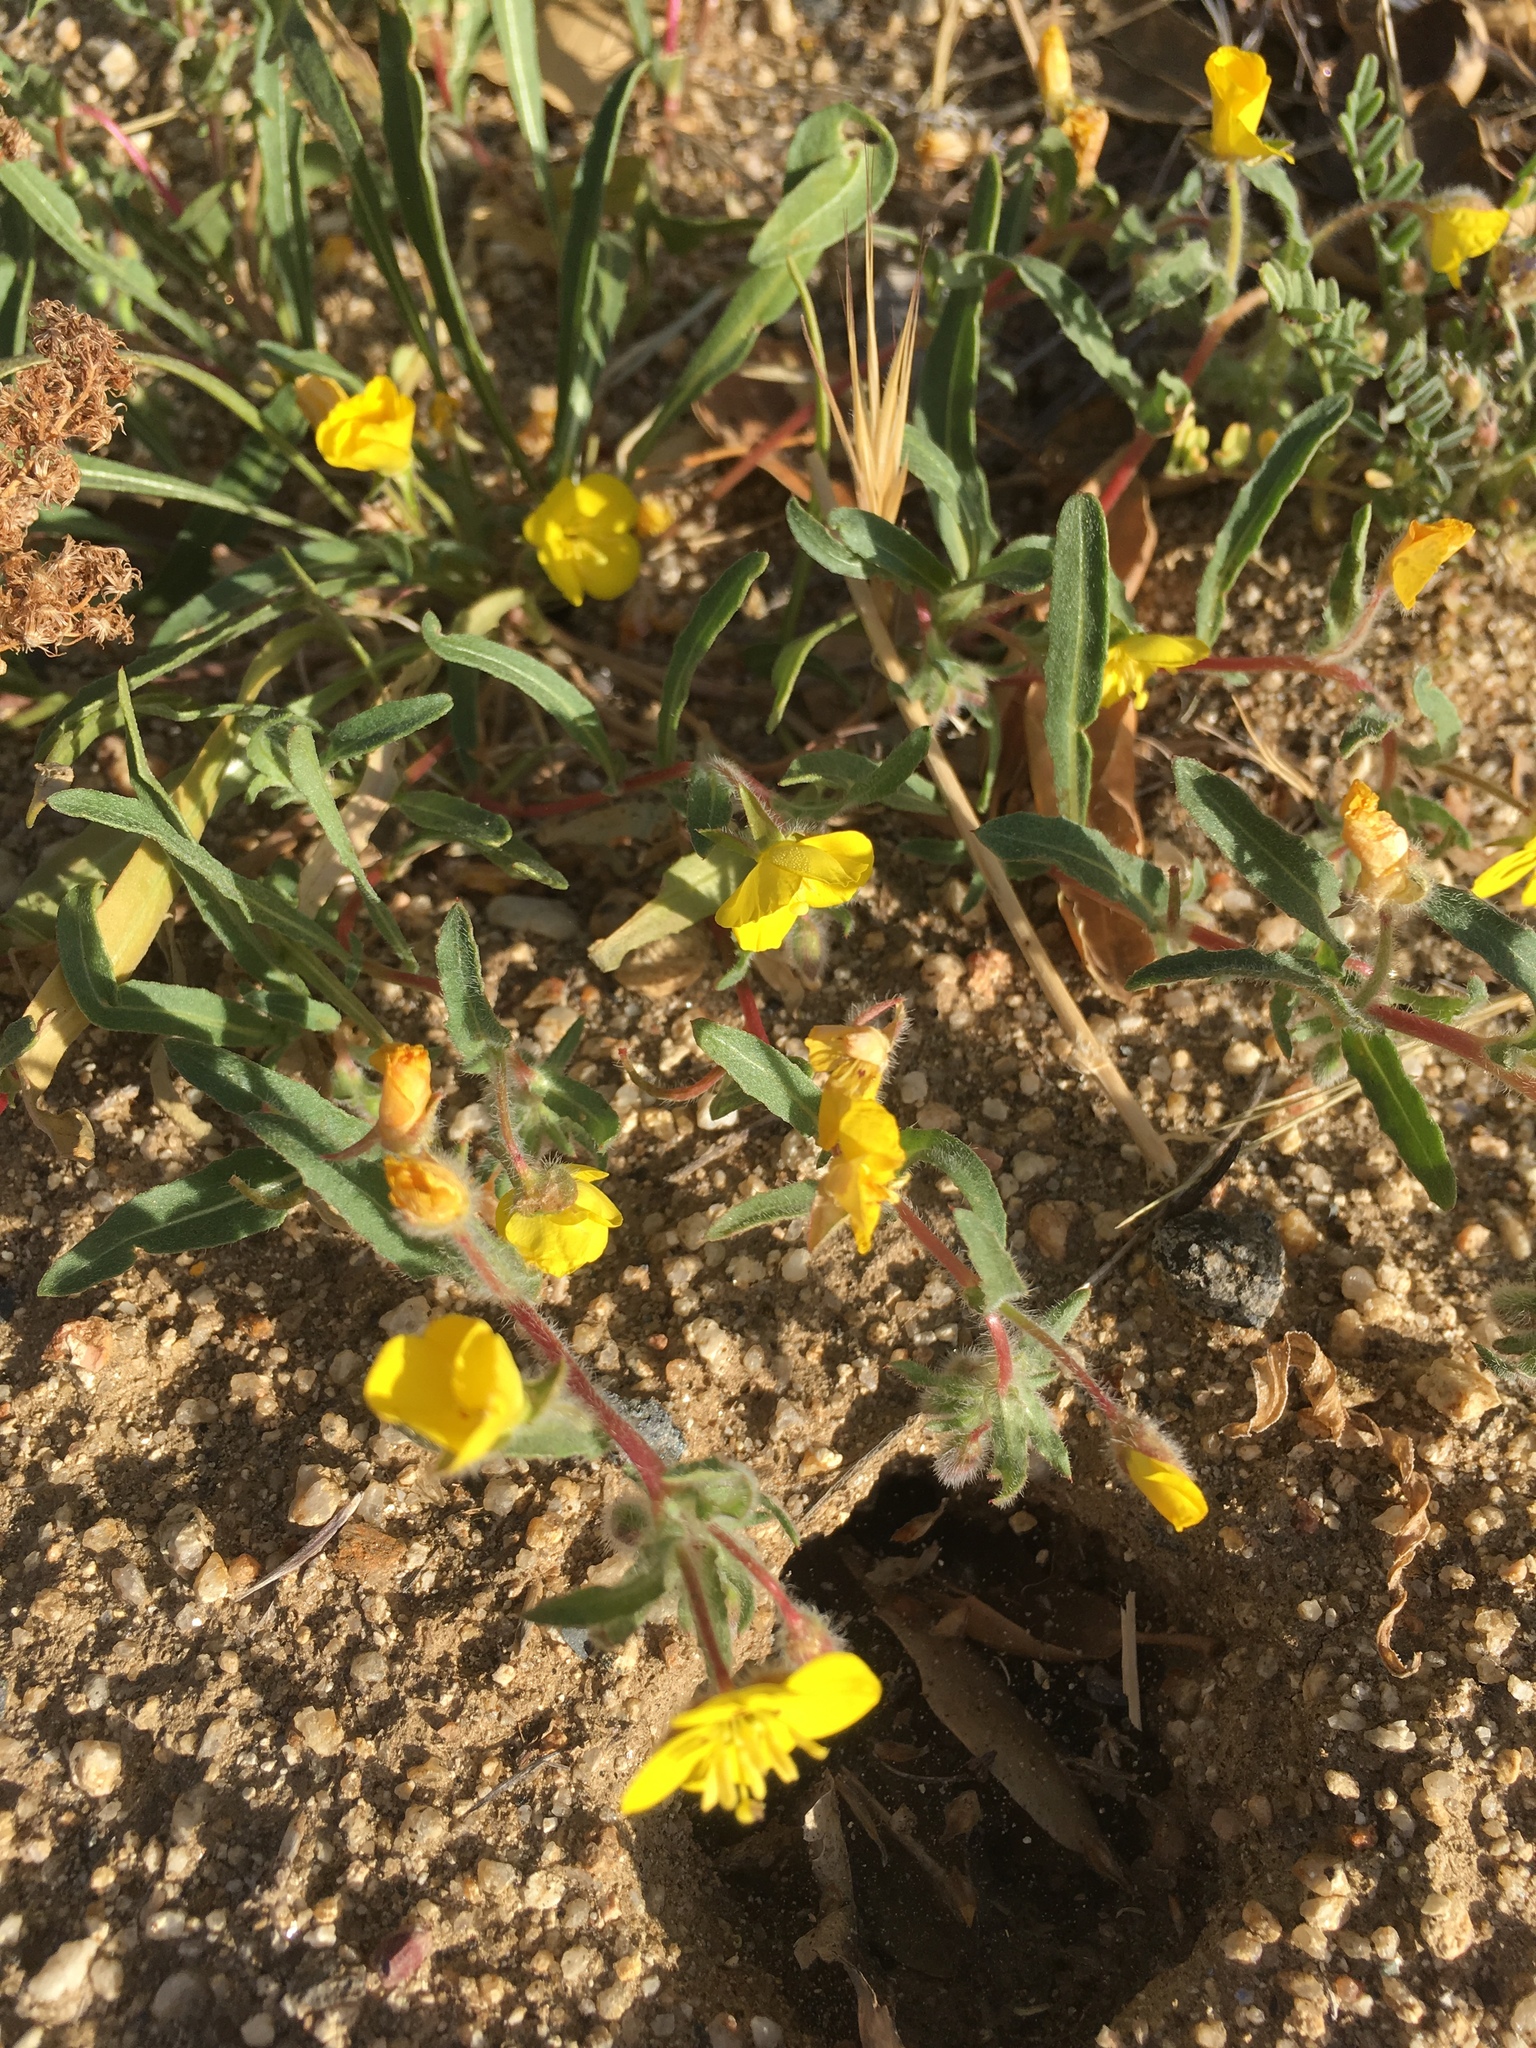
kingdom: Plantae
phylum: Tracheophyta
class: Magnoliopsida
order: Myrtales
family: Onagraceae
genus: Camissoniopsis
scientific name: Camissoniopsis bistorta
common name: Southern suncup
